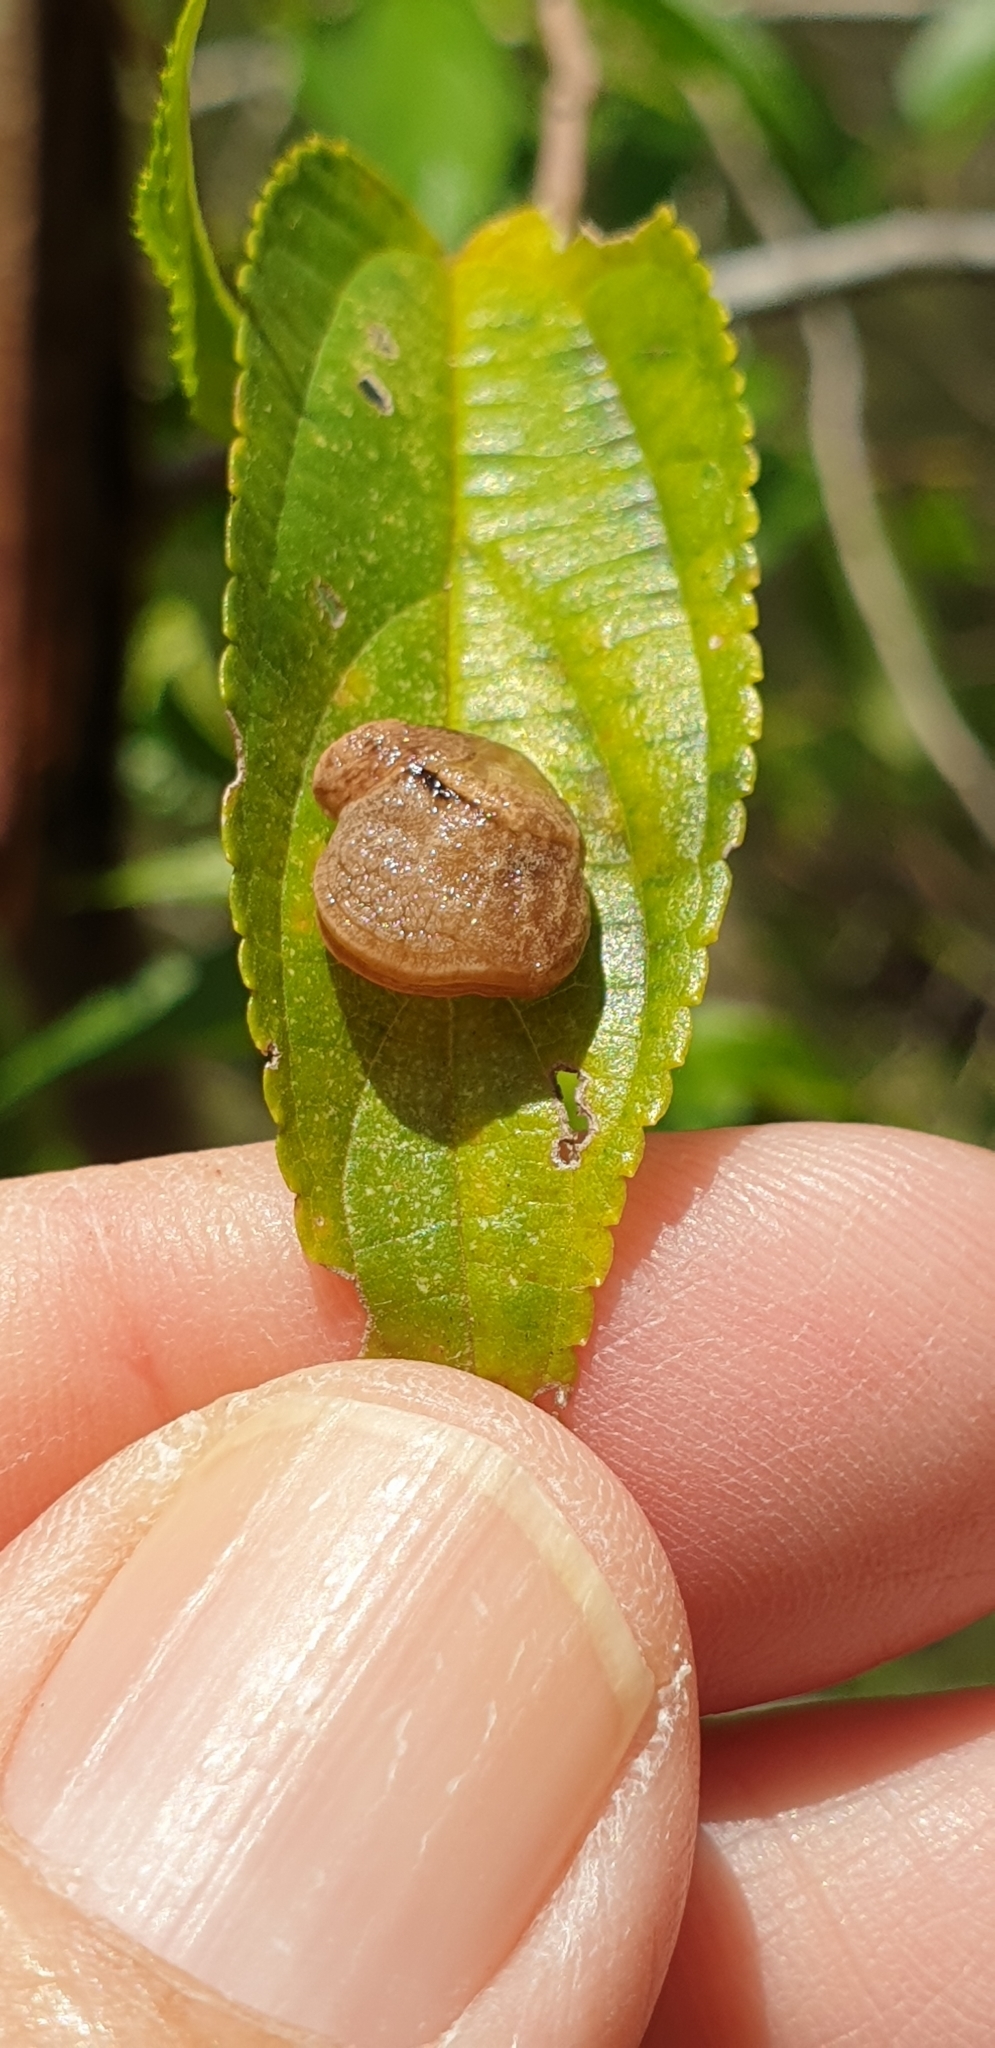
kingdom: Animalia
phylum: Mollusca
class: Gastropoda
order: Stylommatophora
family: Helicarionidae
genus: Ubiquitarion
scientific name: Ubiquitarion iridis
